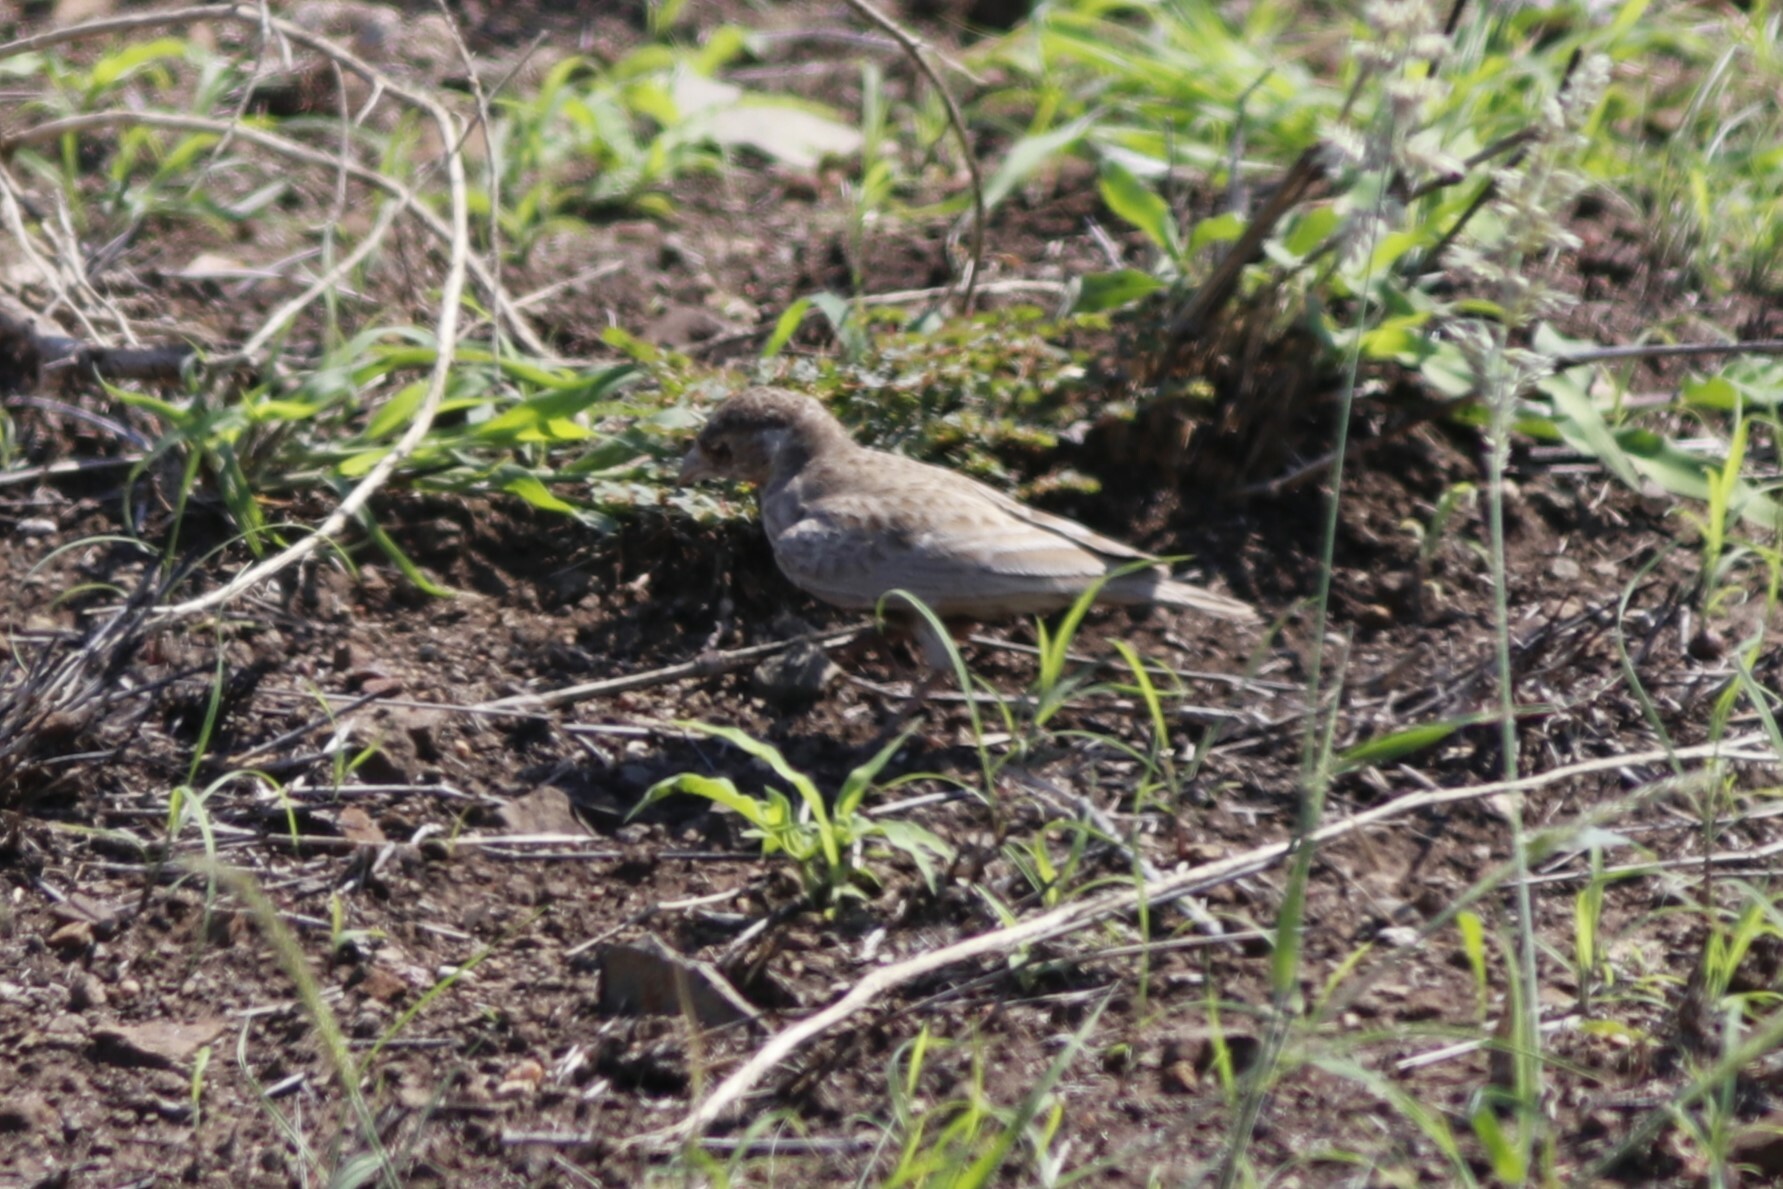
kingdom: Animalia
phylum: Chordata
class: Aves
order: Passeriformes
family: Alaudidae
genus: Eremopterix
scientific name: Eremopterix leucotis
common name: Chestnut-backed sparrow-lark
